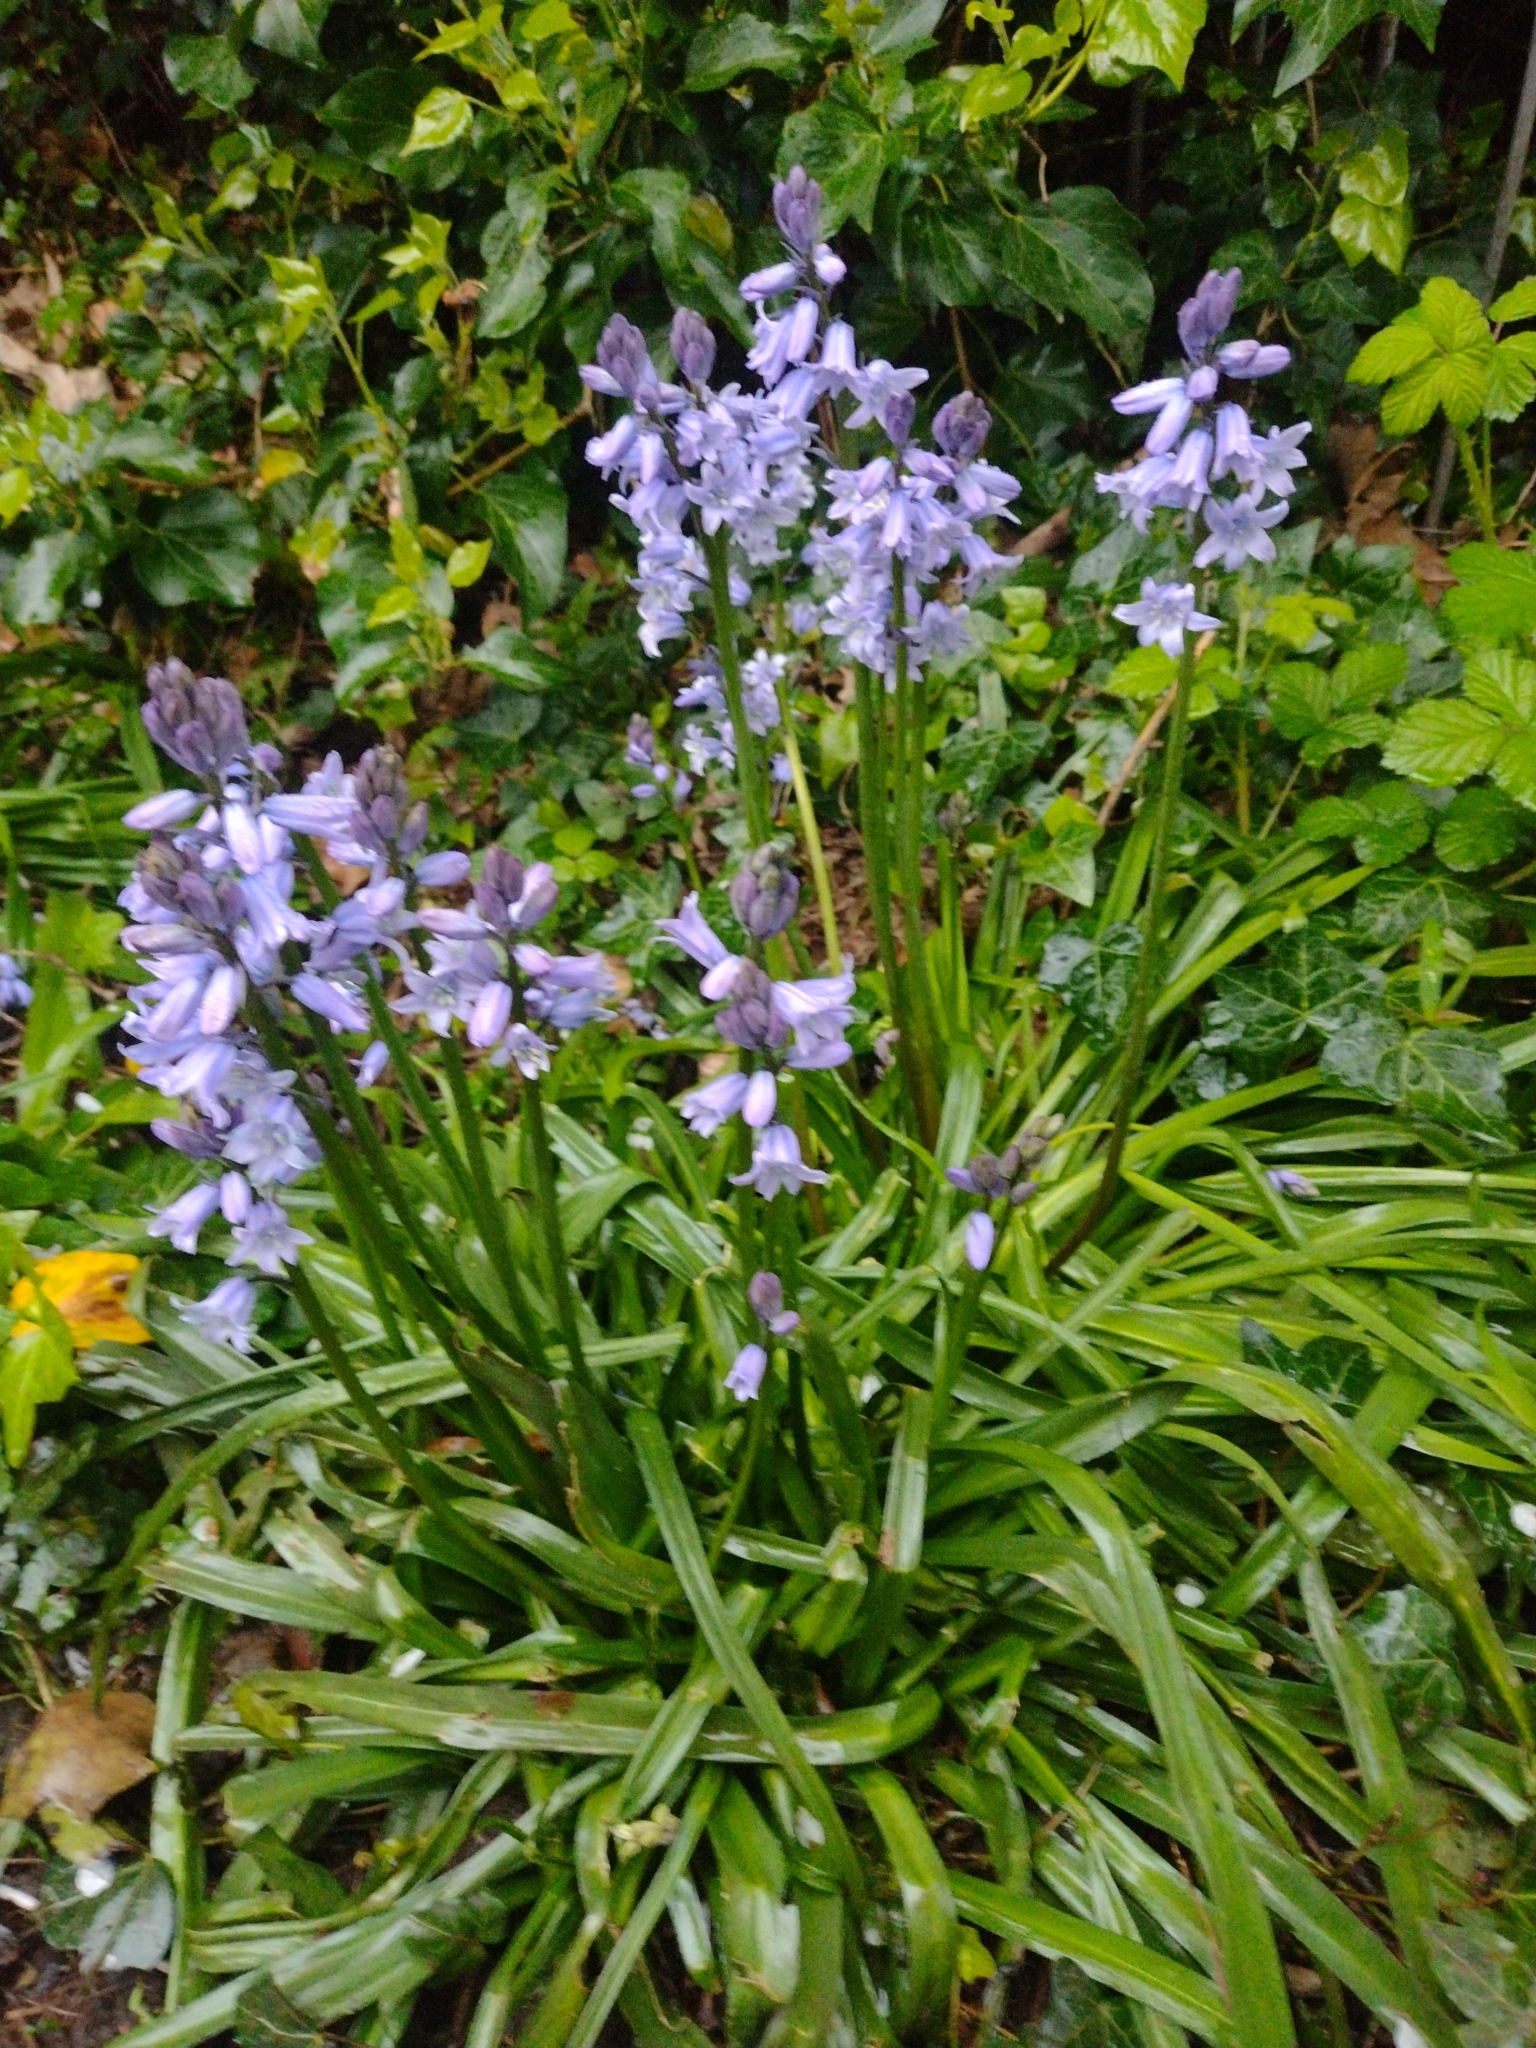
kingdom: Plantae
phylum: Tracheophyta
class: Liliopsida
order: Asparagales
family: Asparagaceae
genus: Hyacinthoides
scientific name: Hyacinthoides hispanica
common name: Spanish bluebell
